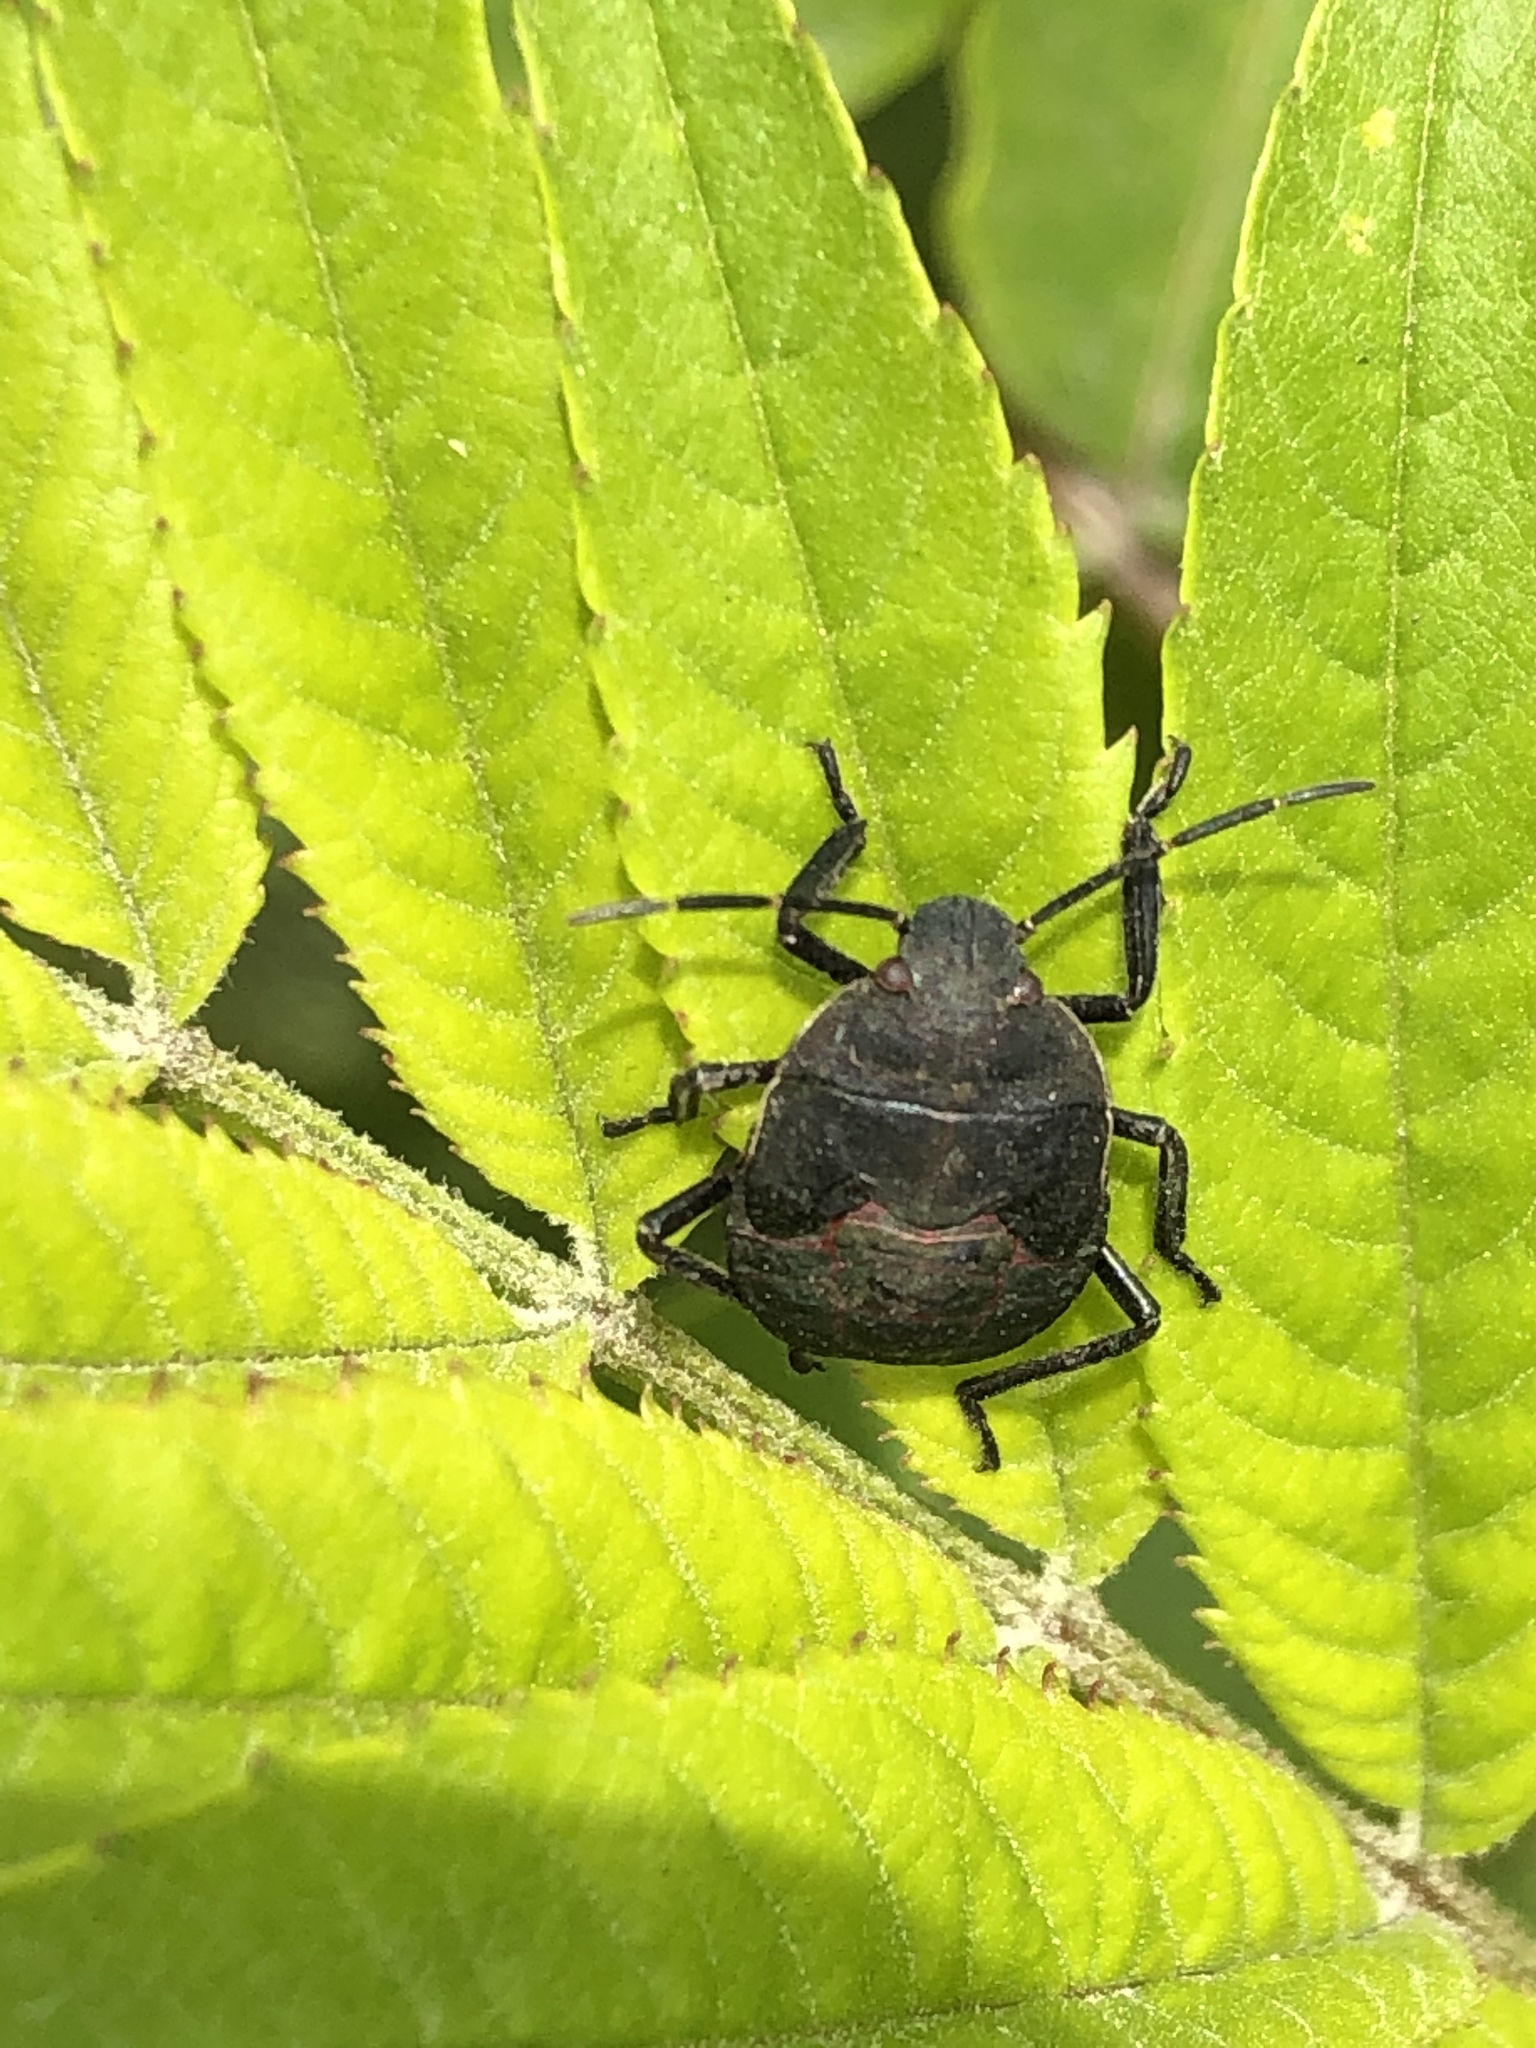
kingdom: Animalia
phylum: Arthropoda
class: Insecta
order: Hemiptera
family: Pentatomidae
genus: Pellaea
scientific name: Pellaea stictica
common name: Stink bug
